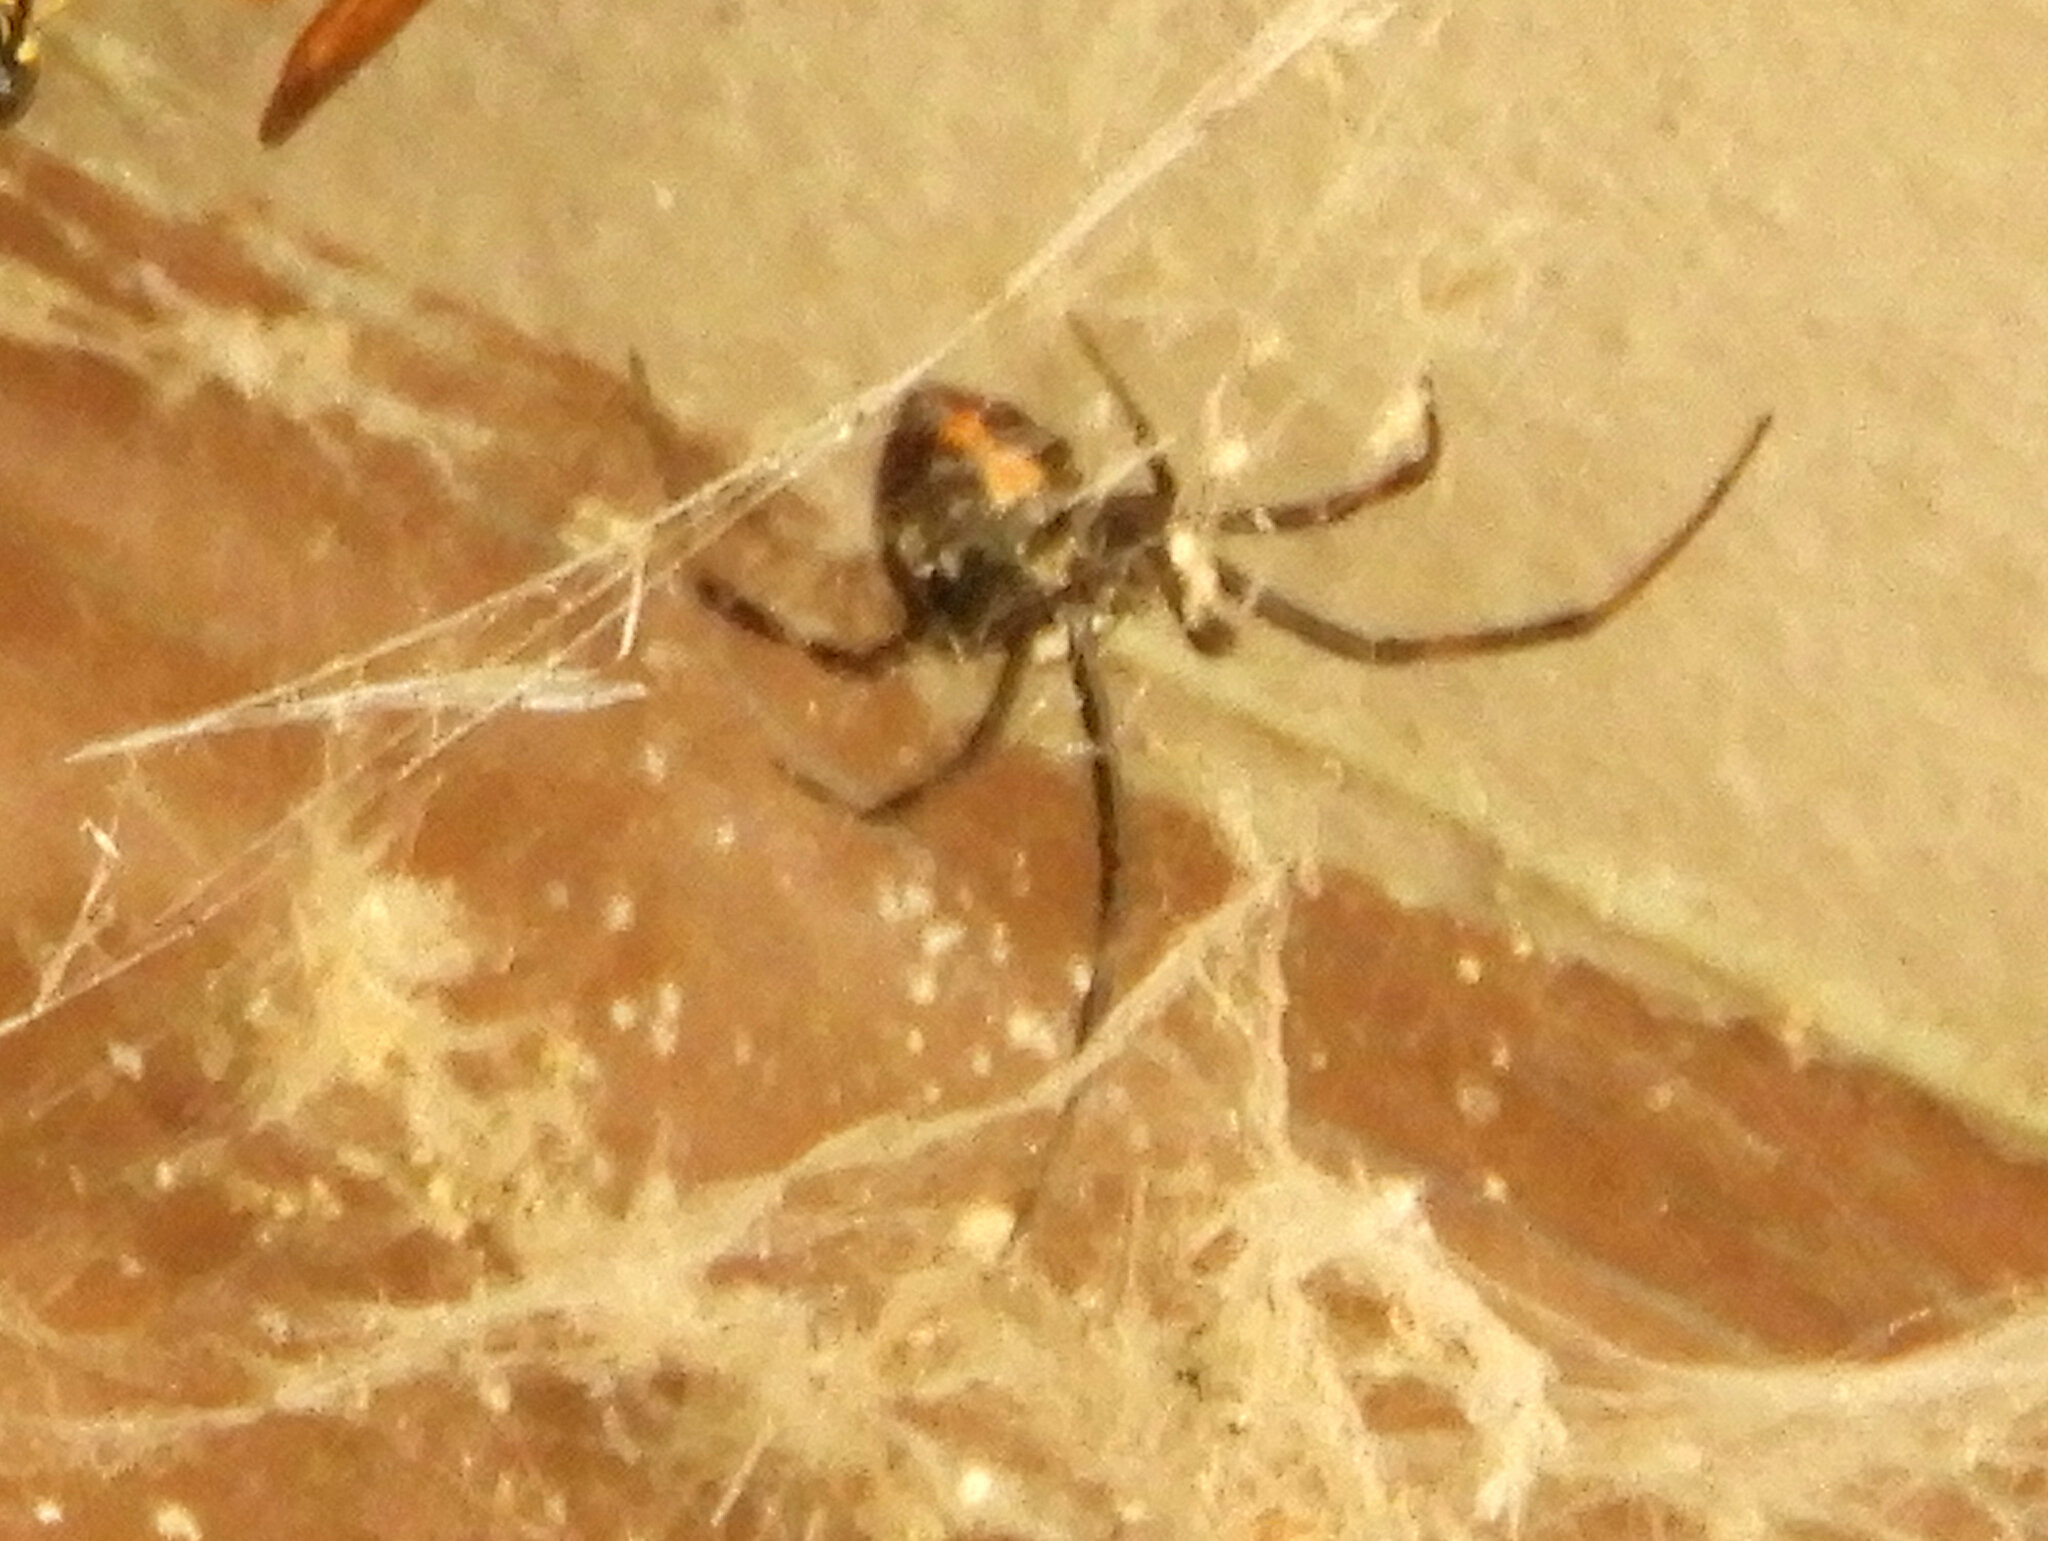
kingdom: Animalia
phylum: Arthropoda
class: Arachnida
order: Araneae
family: Theridiidae
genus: Latrodectus
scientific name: Latrodectus hesperus
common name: Western black widow
